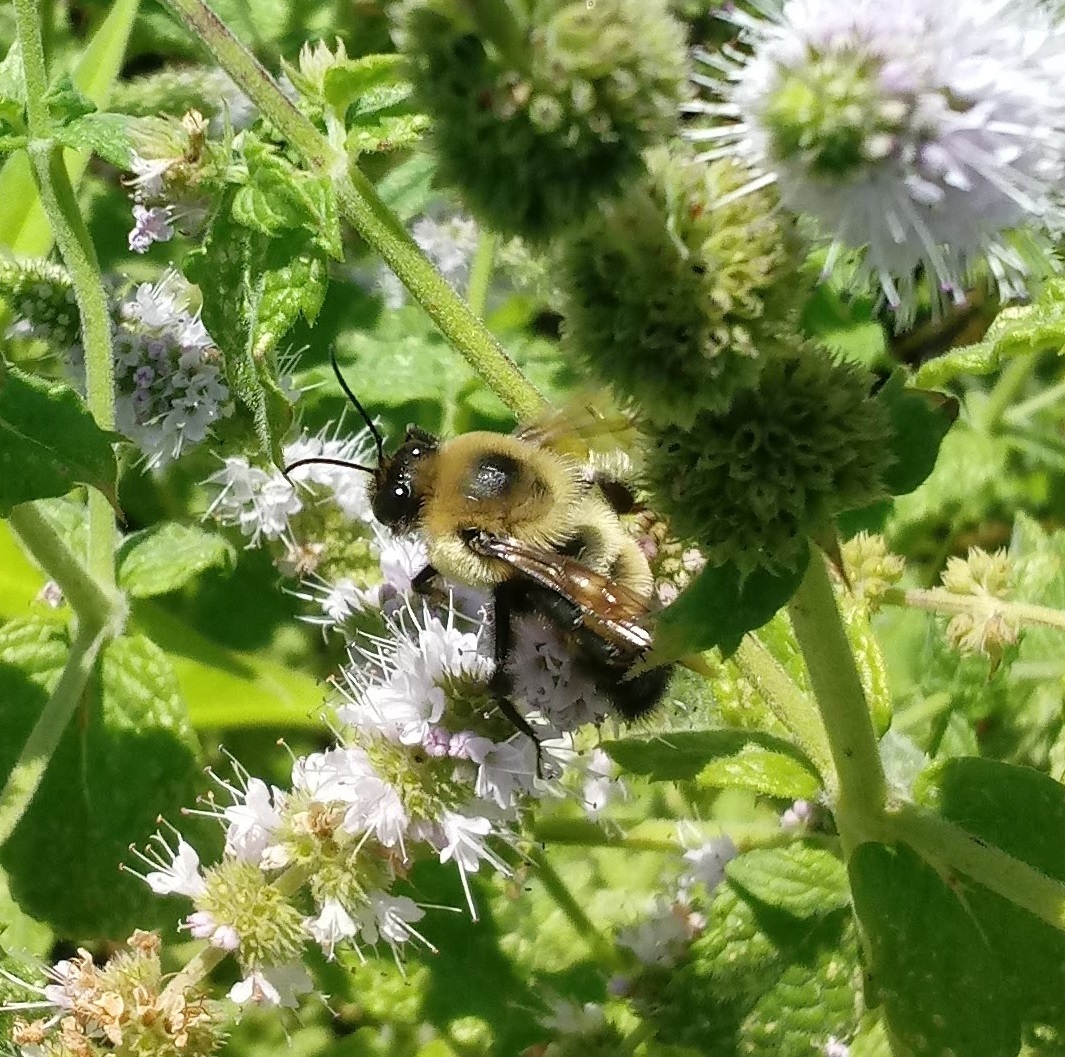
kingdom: Animalia
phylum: Arthropoda
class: Insecta
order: Hymenoptera
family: Apidae
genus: Bombus
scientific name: Bombus griseocollis
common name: Brown-belted bumble bee
